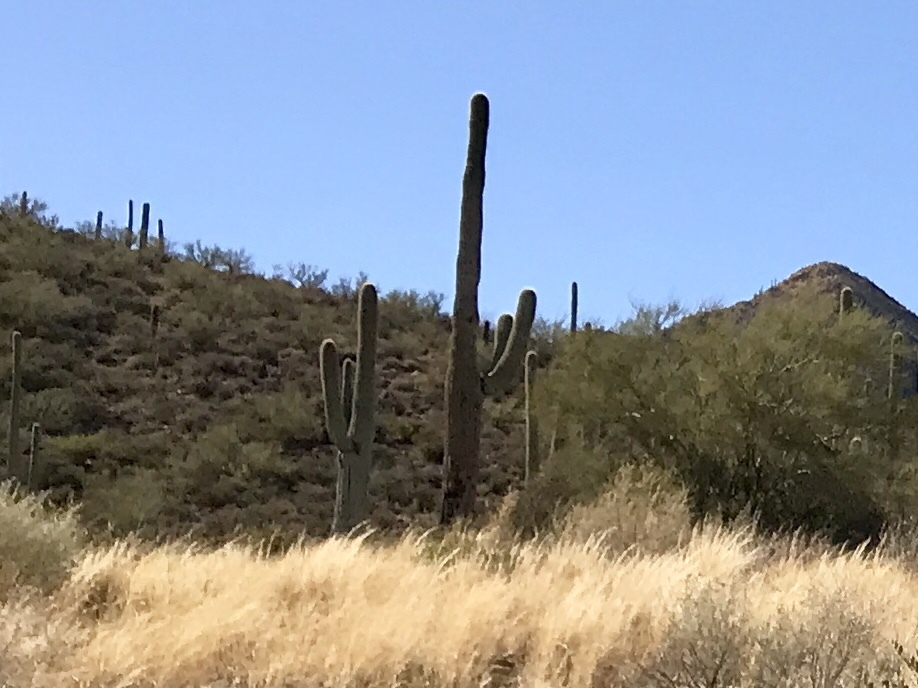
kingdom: Plantae
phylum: Tracheophyta
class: Magnoliopsida
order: Caryophyllales
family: Cactaceae
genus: Carnegiea
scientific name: Carnegiea gigantea
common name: Saguaro
